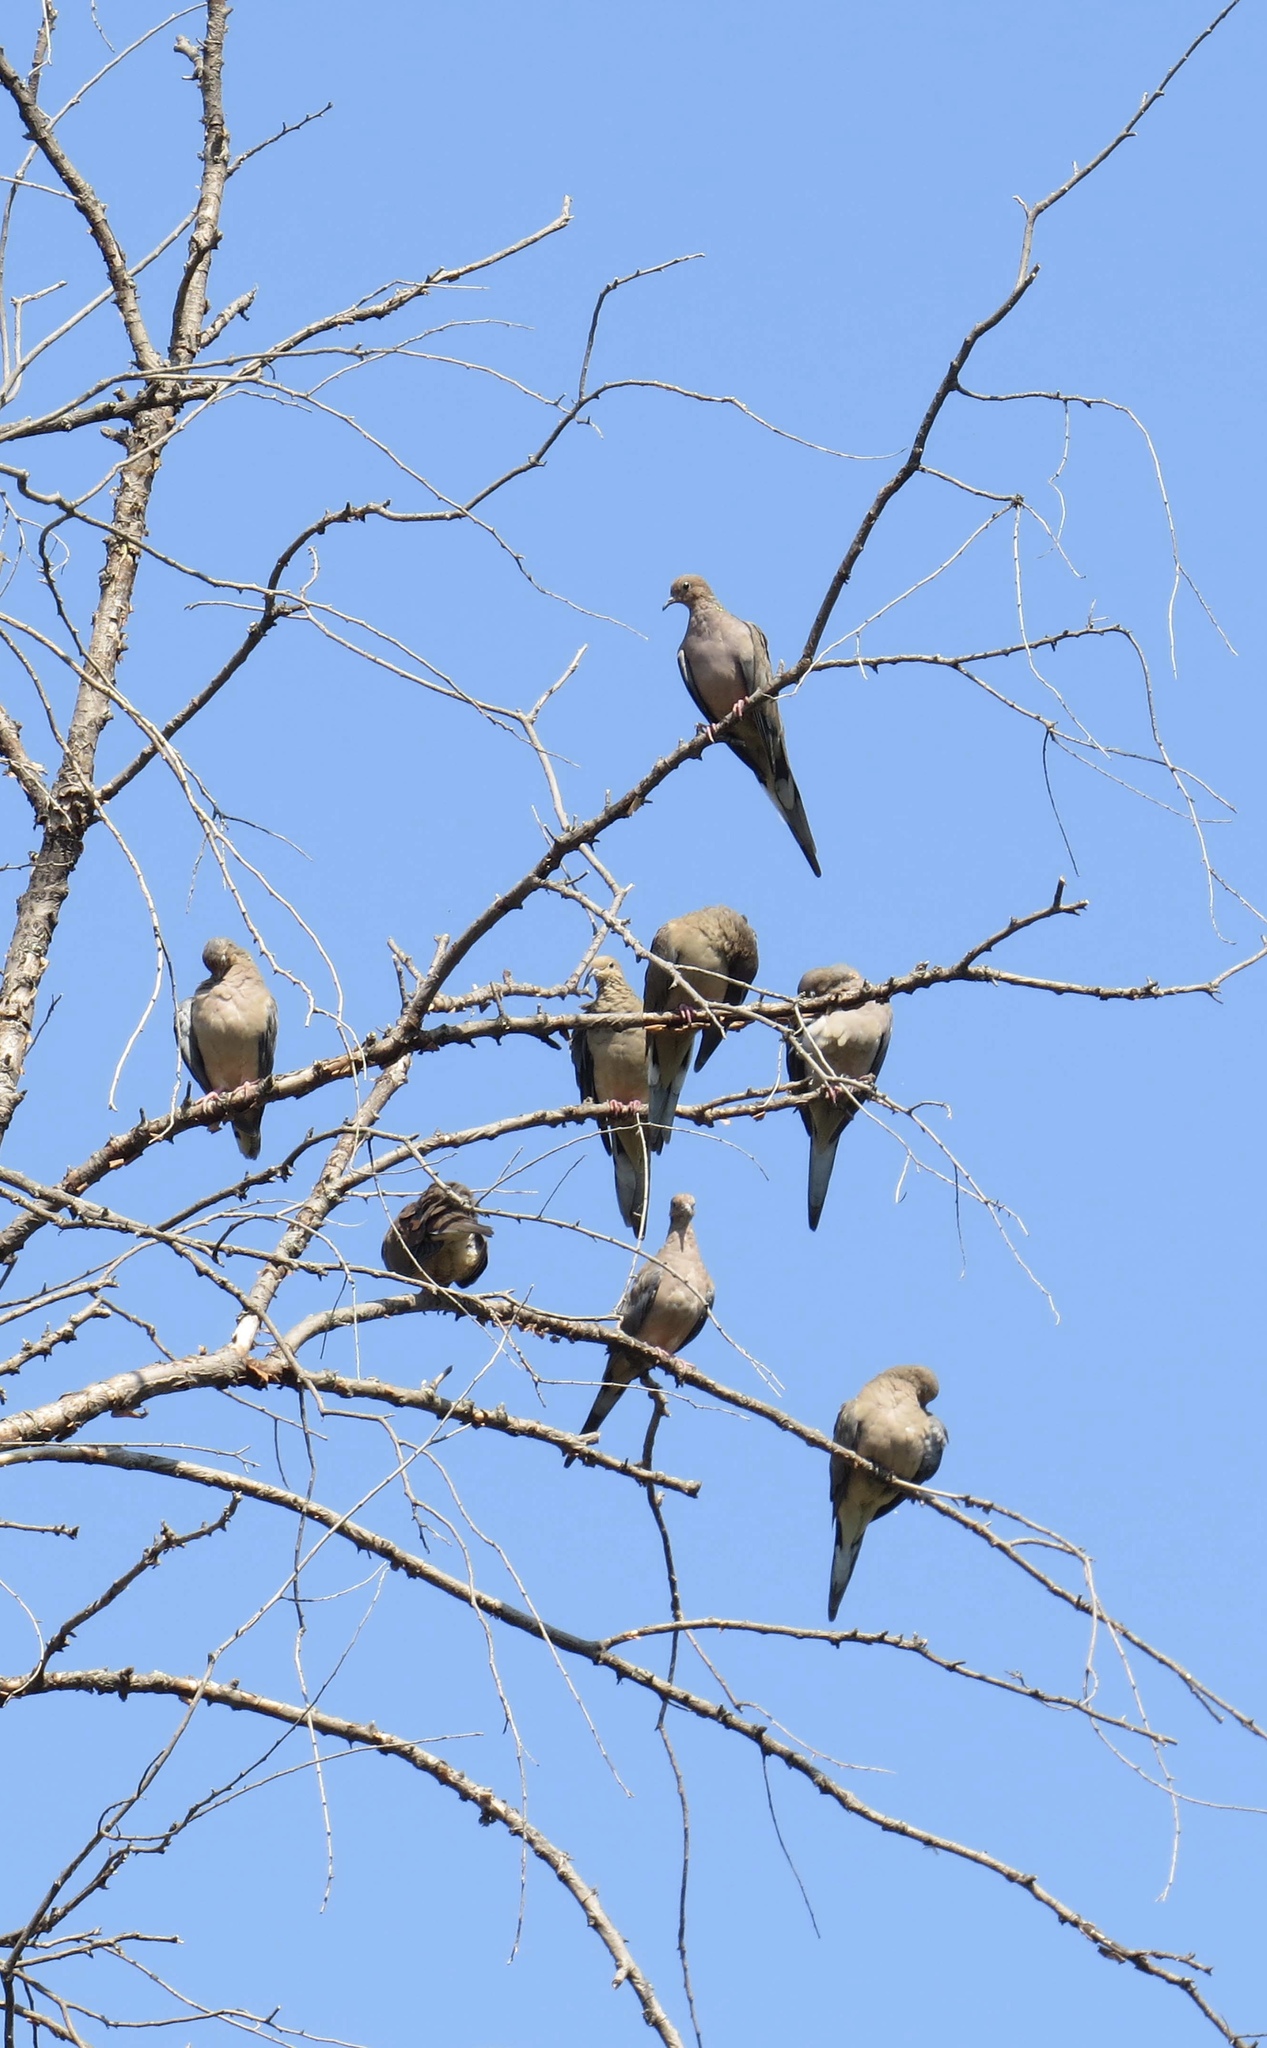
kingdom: Animalia
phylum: Chordata
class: Aves
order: Columbiformes
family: Columbidae
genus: Zenaida
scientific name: Zenaida macroura
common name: Mourning dove
